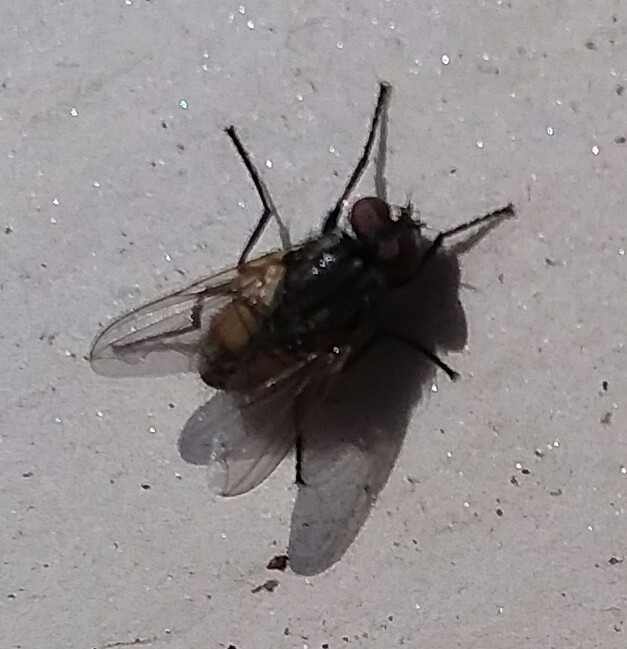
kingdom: Animalia
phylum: Arthropoda
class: Insecta
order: Diptera
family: Muscidae
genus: Musca
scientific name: Musca domestica
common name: House fly
